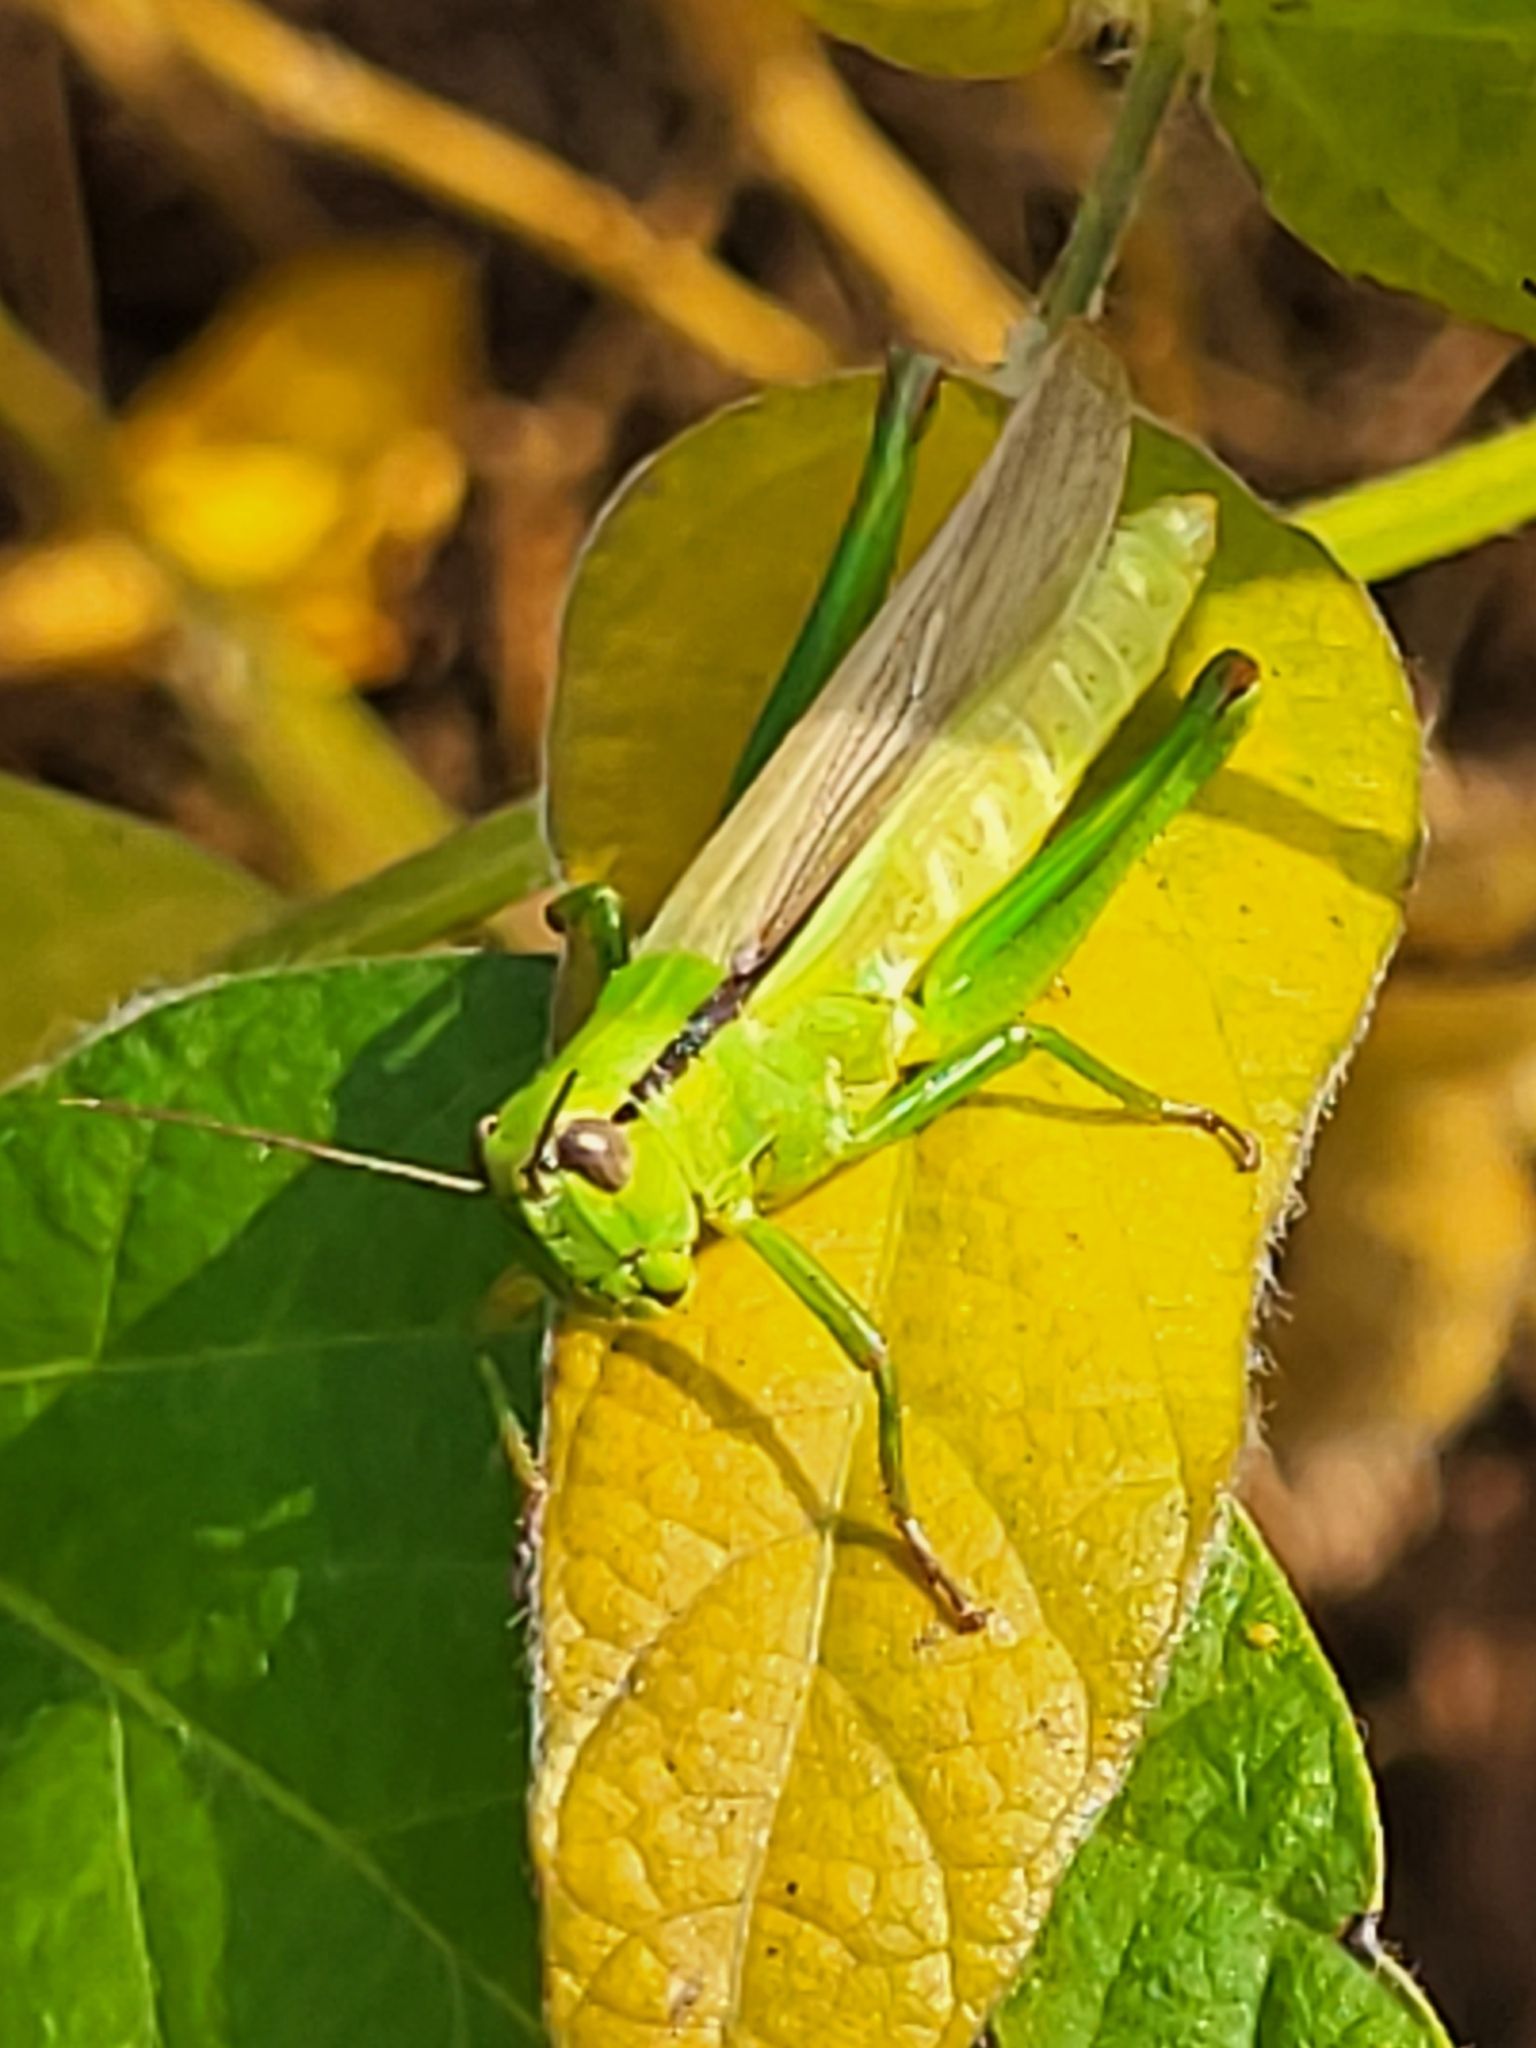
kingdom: Animalia
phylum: Arthropoda
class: Insecta
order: Orthoptera
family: Acrididae
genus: Mecostethus
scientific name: Mecostethus parapleurus
